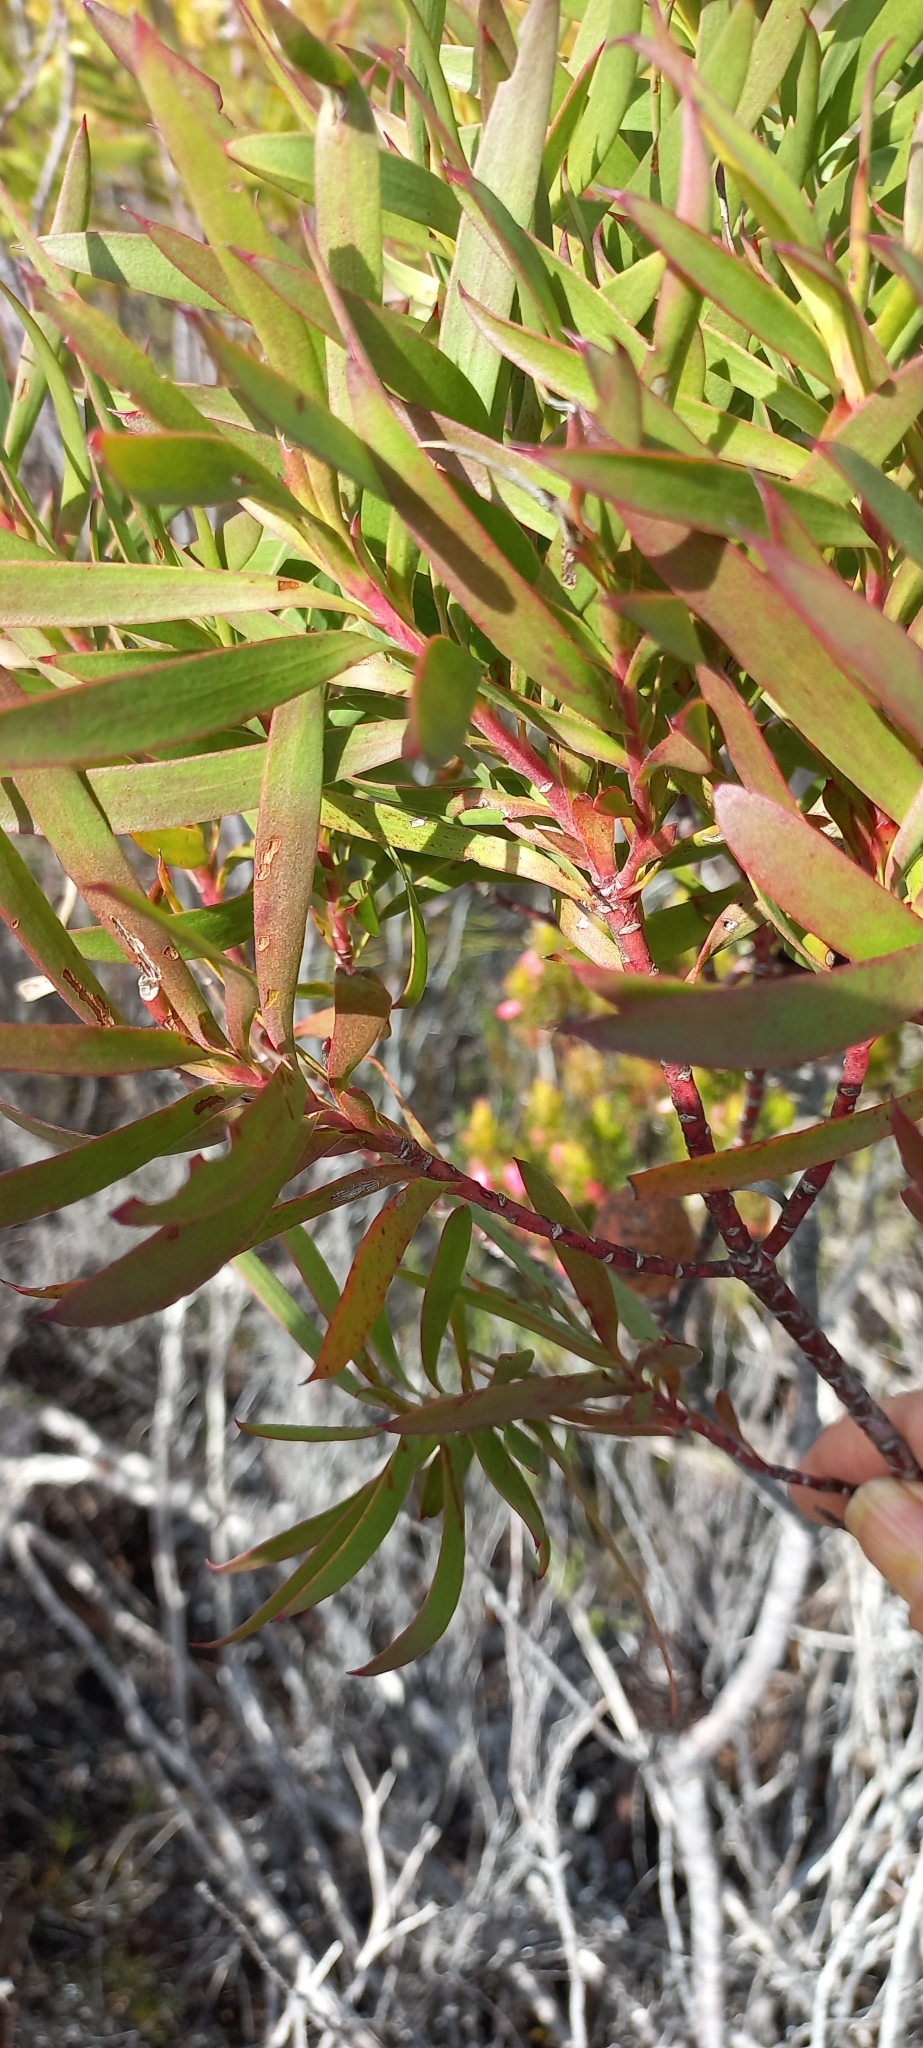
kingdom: Plantae
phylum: Tracheophyta
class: Magnoliopsida
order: Proteales
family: Proteaceae
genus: Leucadendron
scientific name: Leucadendron coniferum
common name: Dune conebush
